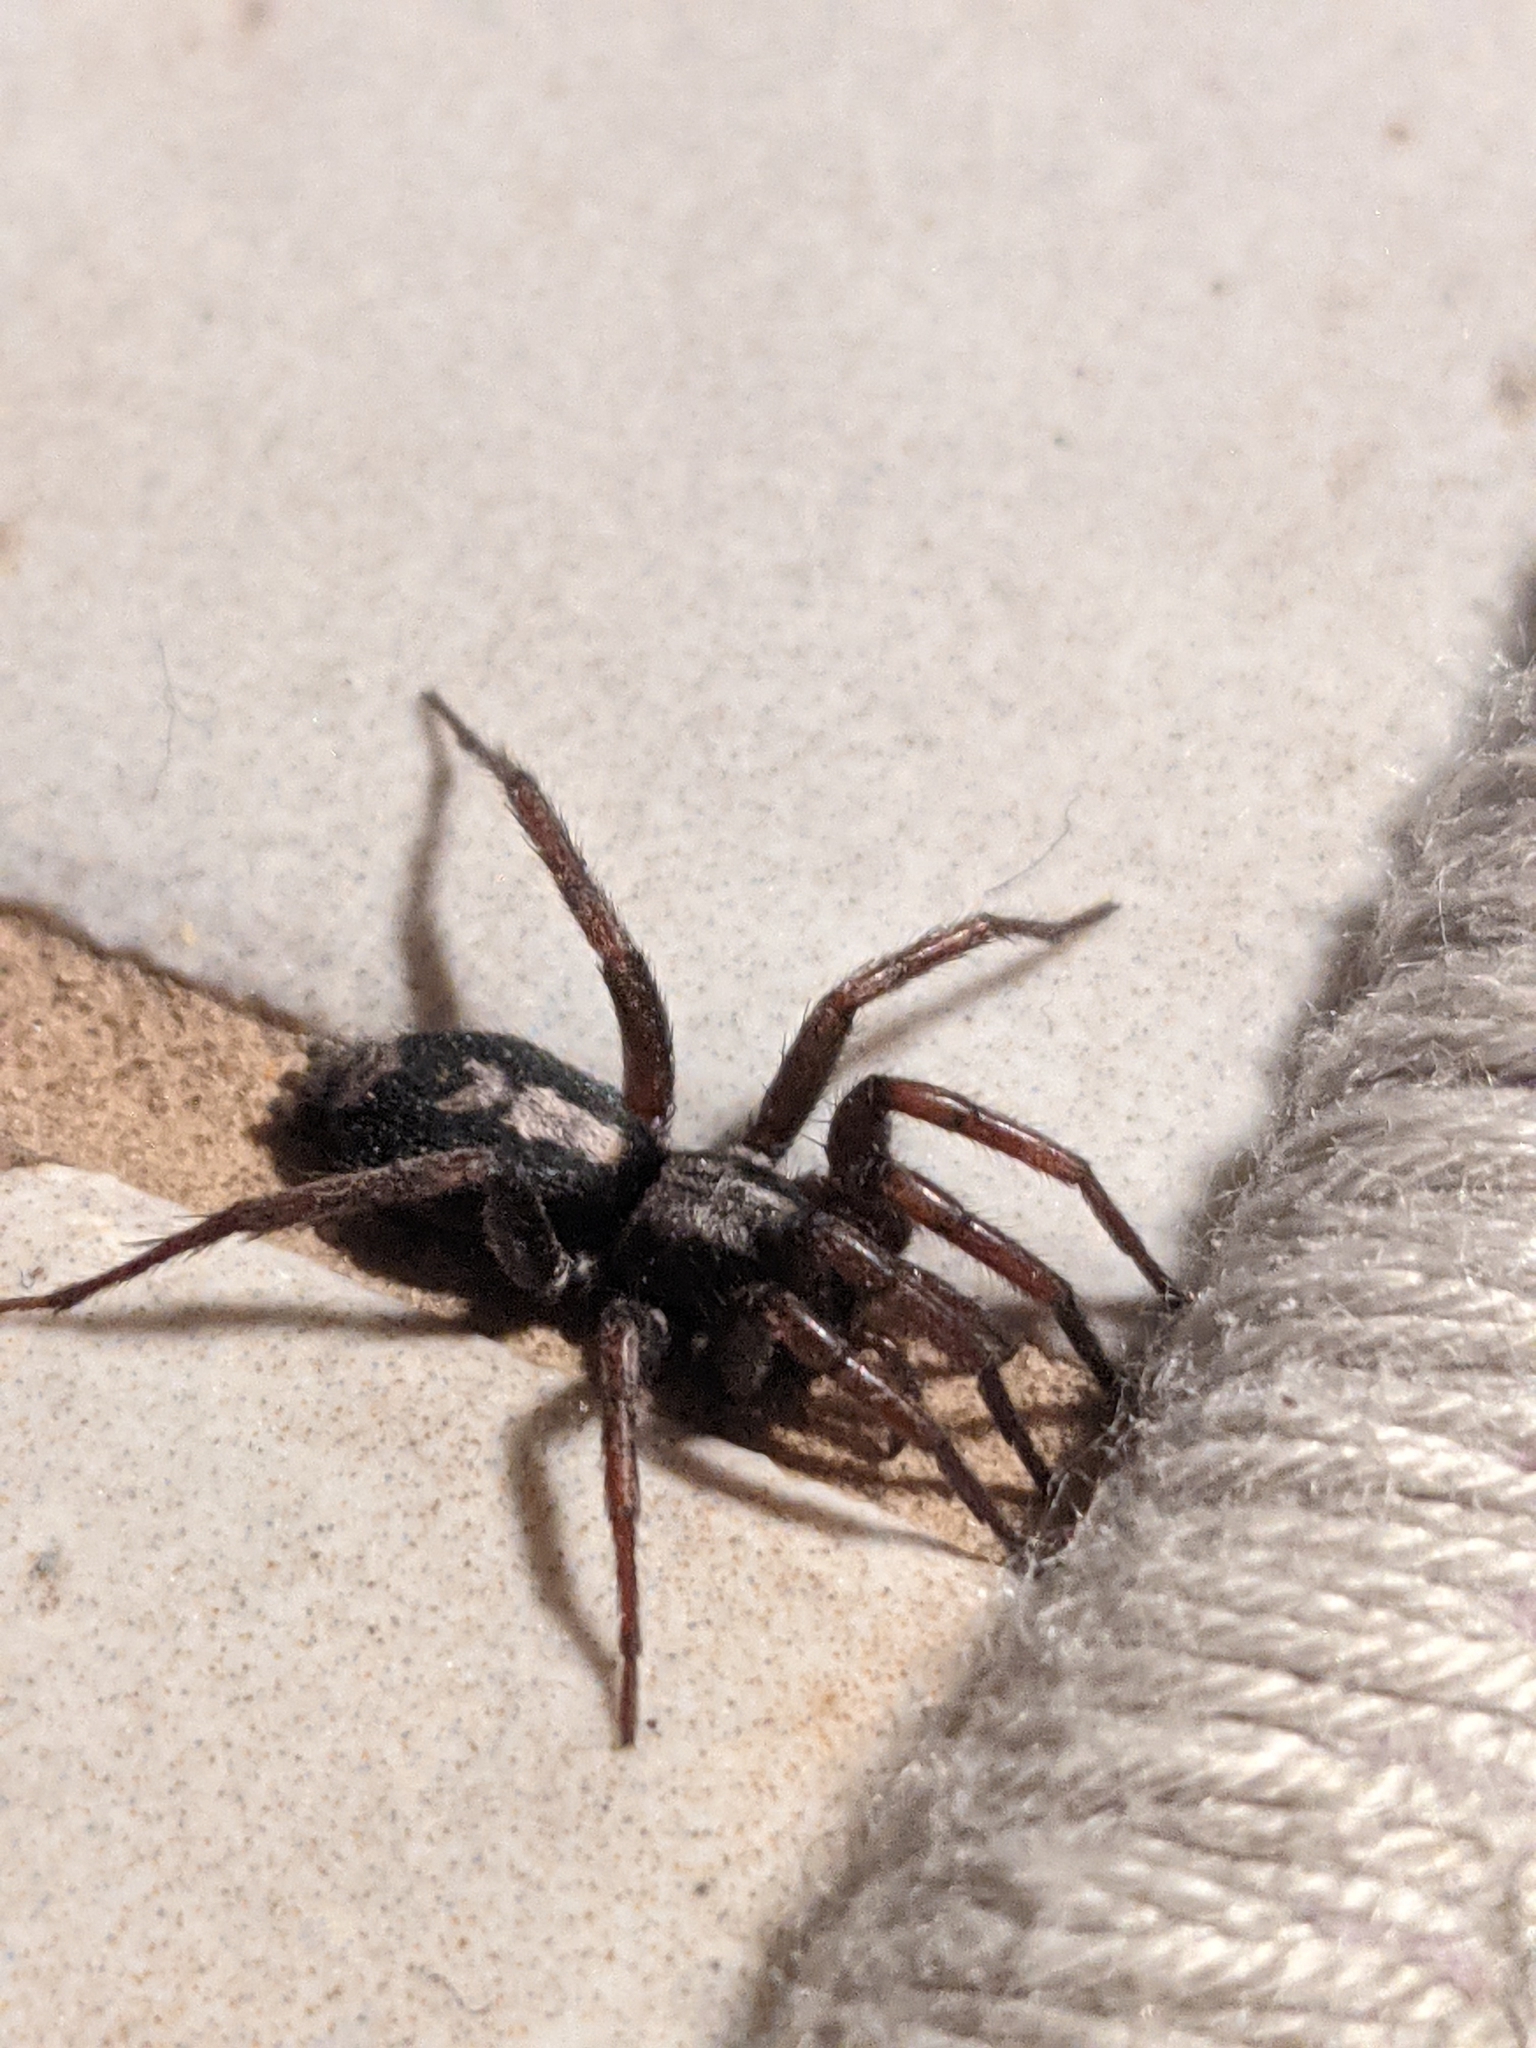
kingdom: Animalia
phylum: Arthropoda
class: Arachnida
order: Araneae
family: Gnaphosidae
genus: Herpyllus
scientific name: Herpyllus ecclesiasticus
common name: Eastern parson spider
